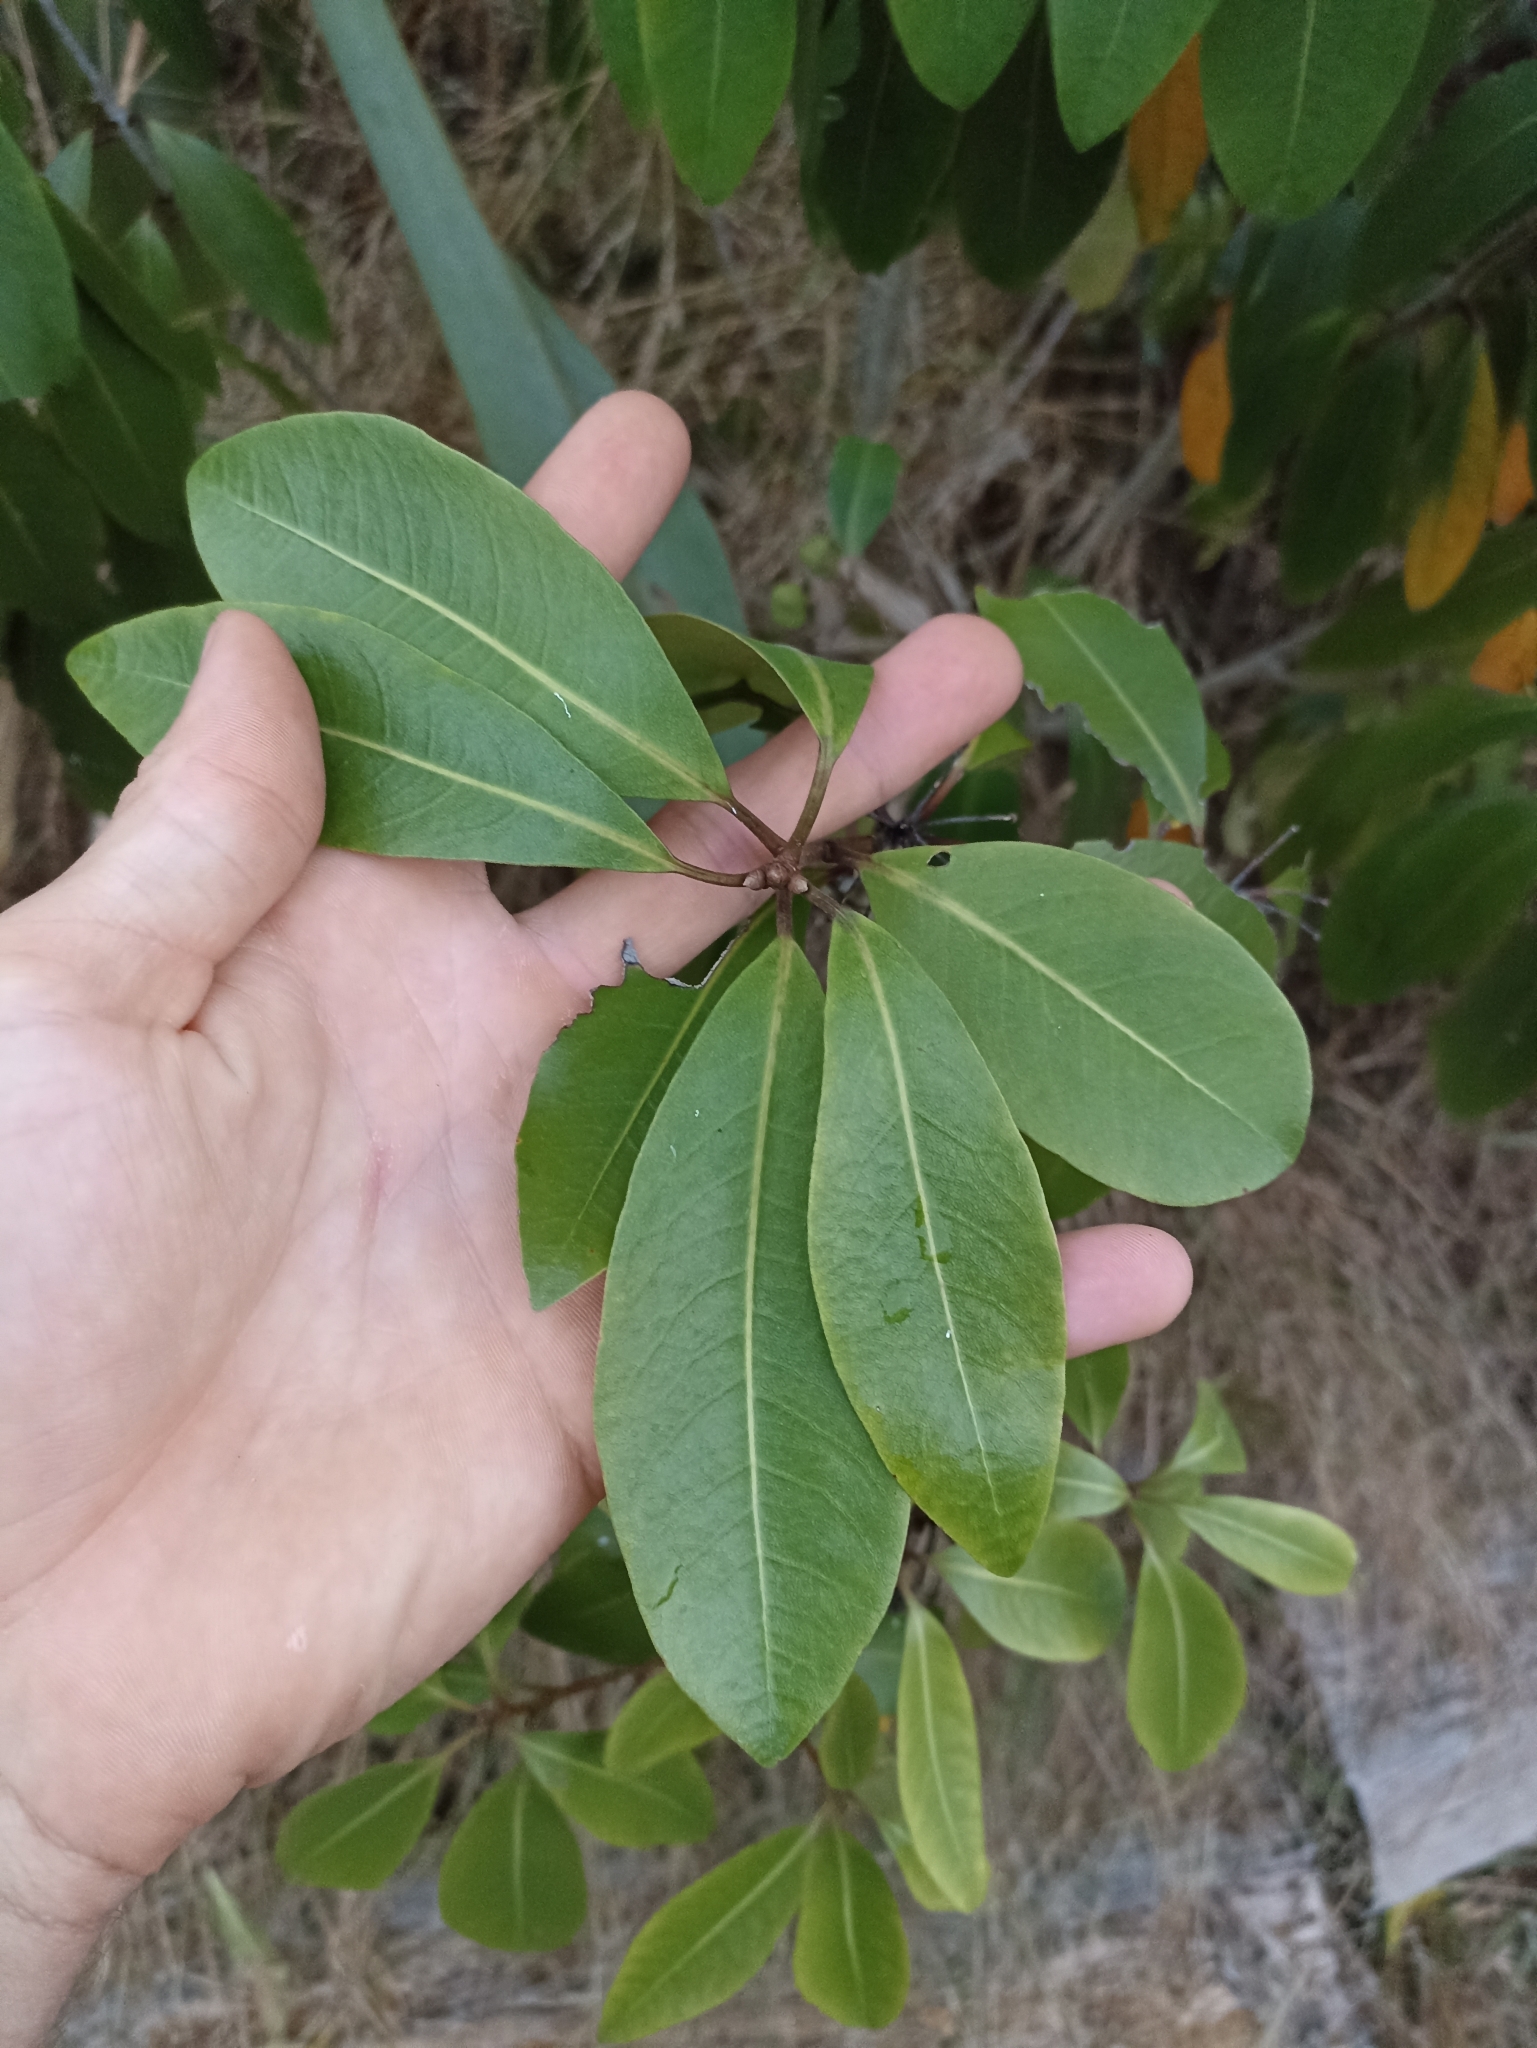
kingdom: Plantae
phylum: Tracheophyta
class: Magnoliopsida
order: Apiales
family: Pittosporaceae
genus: Pittosporum
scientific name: Pittosporum umbellatum
